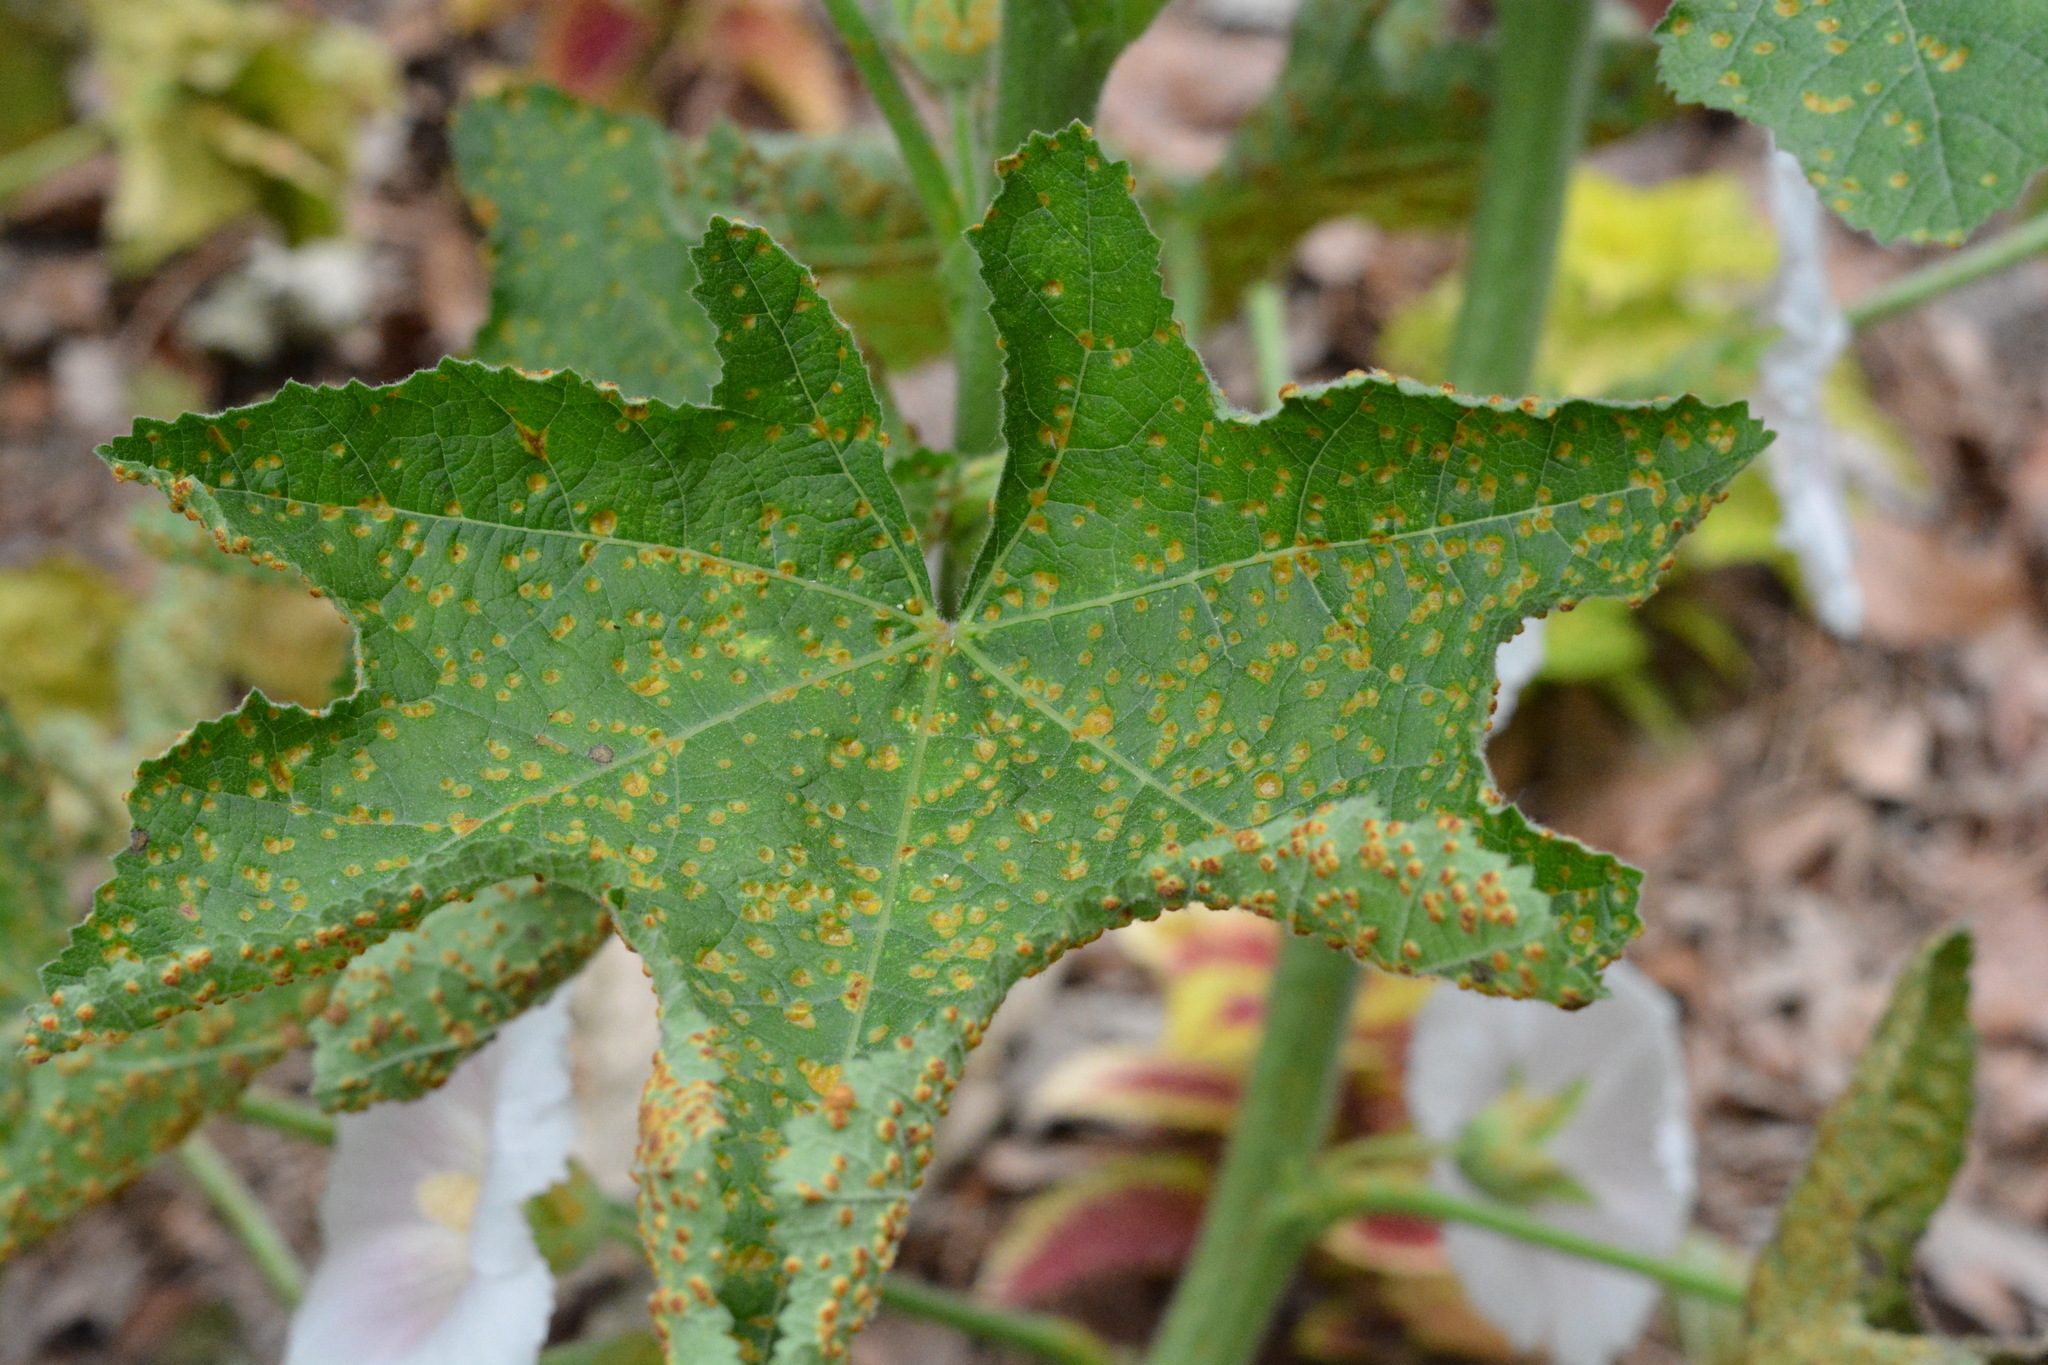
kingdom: Fungi
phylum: Basidiomycota
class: Pucciniomycetes
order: Pucciniales
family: Pucciniaceae
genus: Puccinia
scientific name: Puccinia malvacearum
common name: Hollyhock rust
